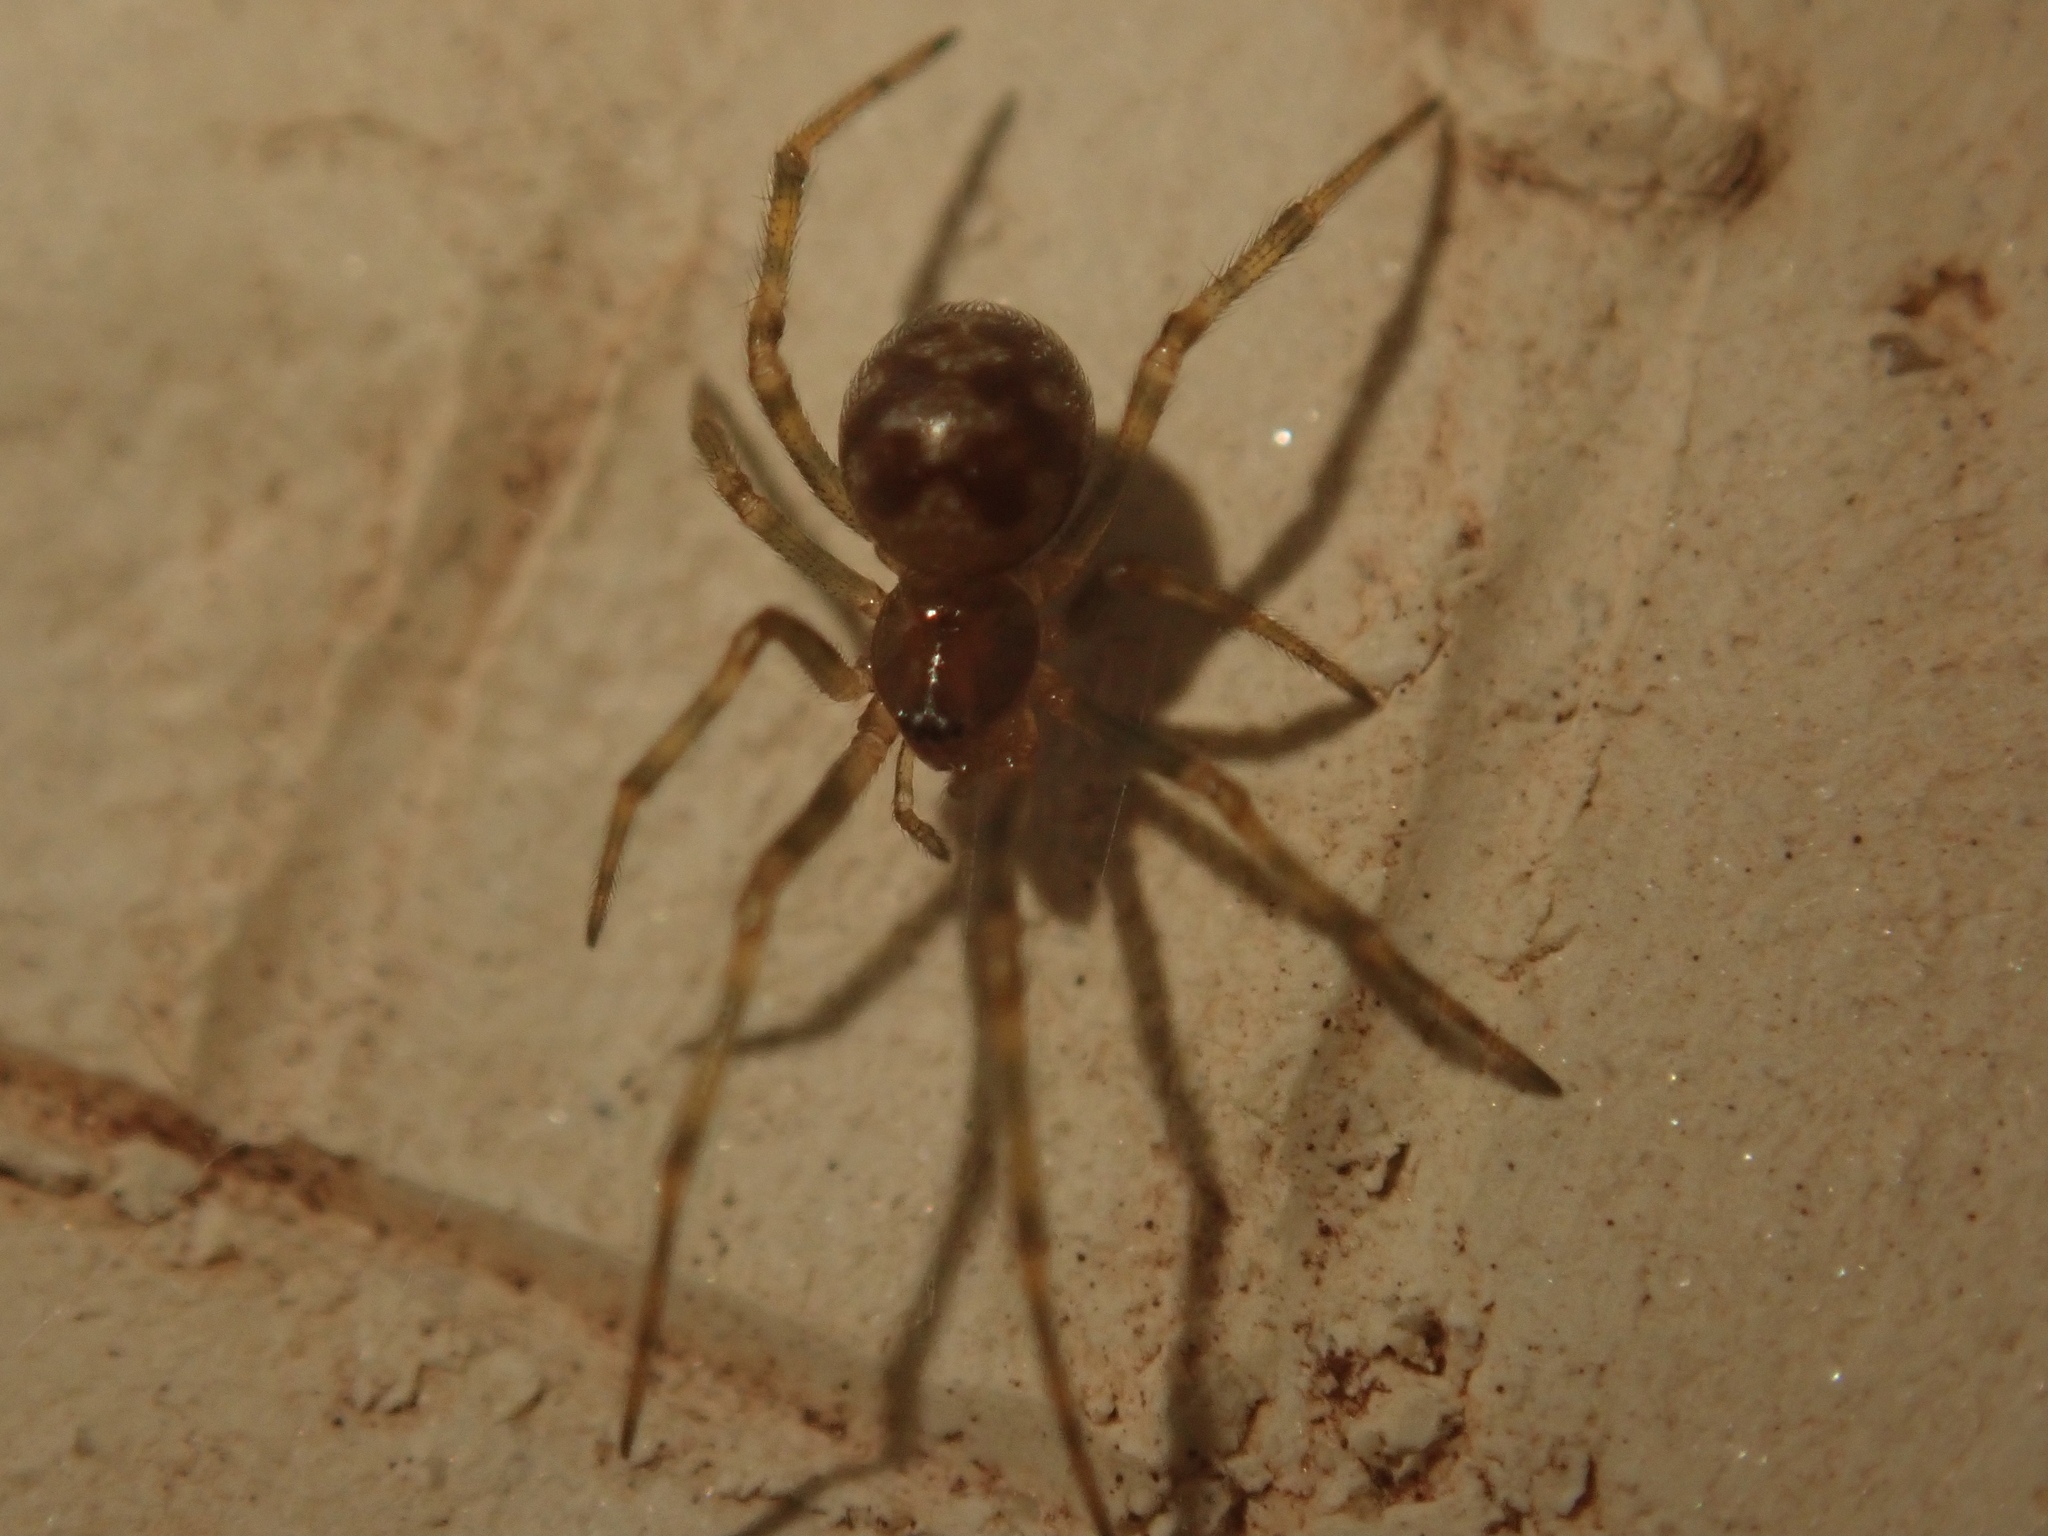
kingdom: Animalia
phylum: Arthropoda
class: Arachnida
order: Araneae
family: Theridiidae
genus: Steatoda
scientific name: Steatoda triangulosa
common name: Triangulate bud spider
